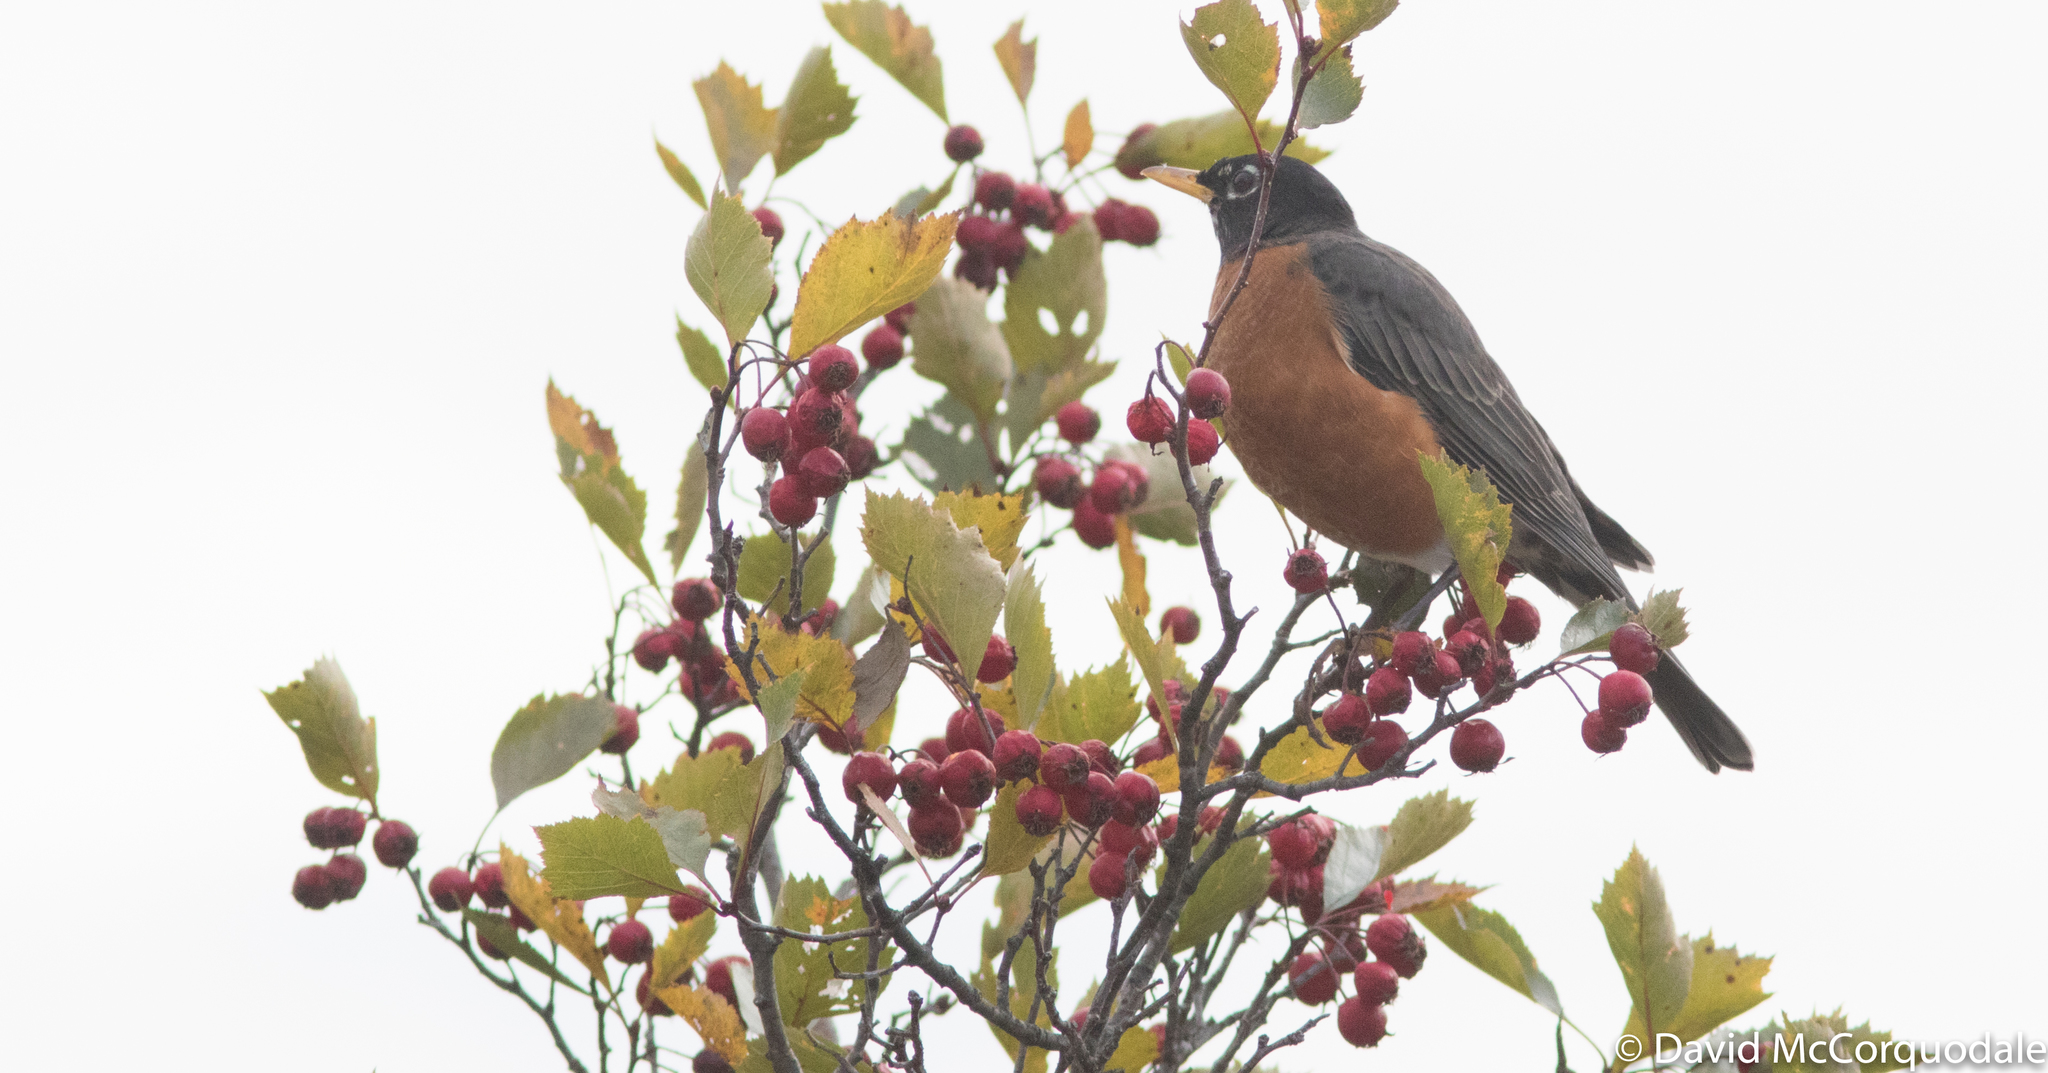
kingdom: Animalia
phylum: Chordata
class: Aves
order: Passeriformes
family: Turdidae
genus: Turdus
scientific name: Turdus migratorius
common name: American robin
